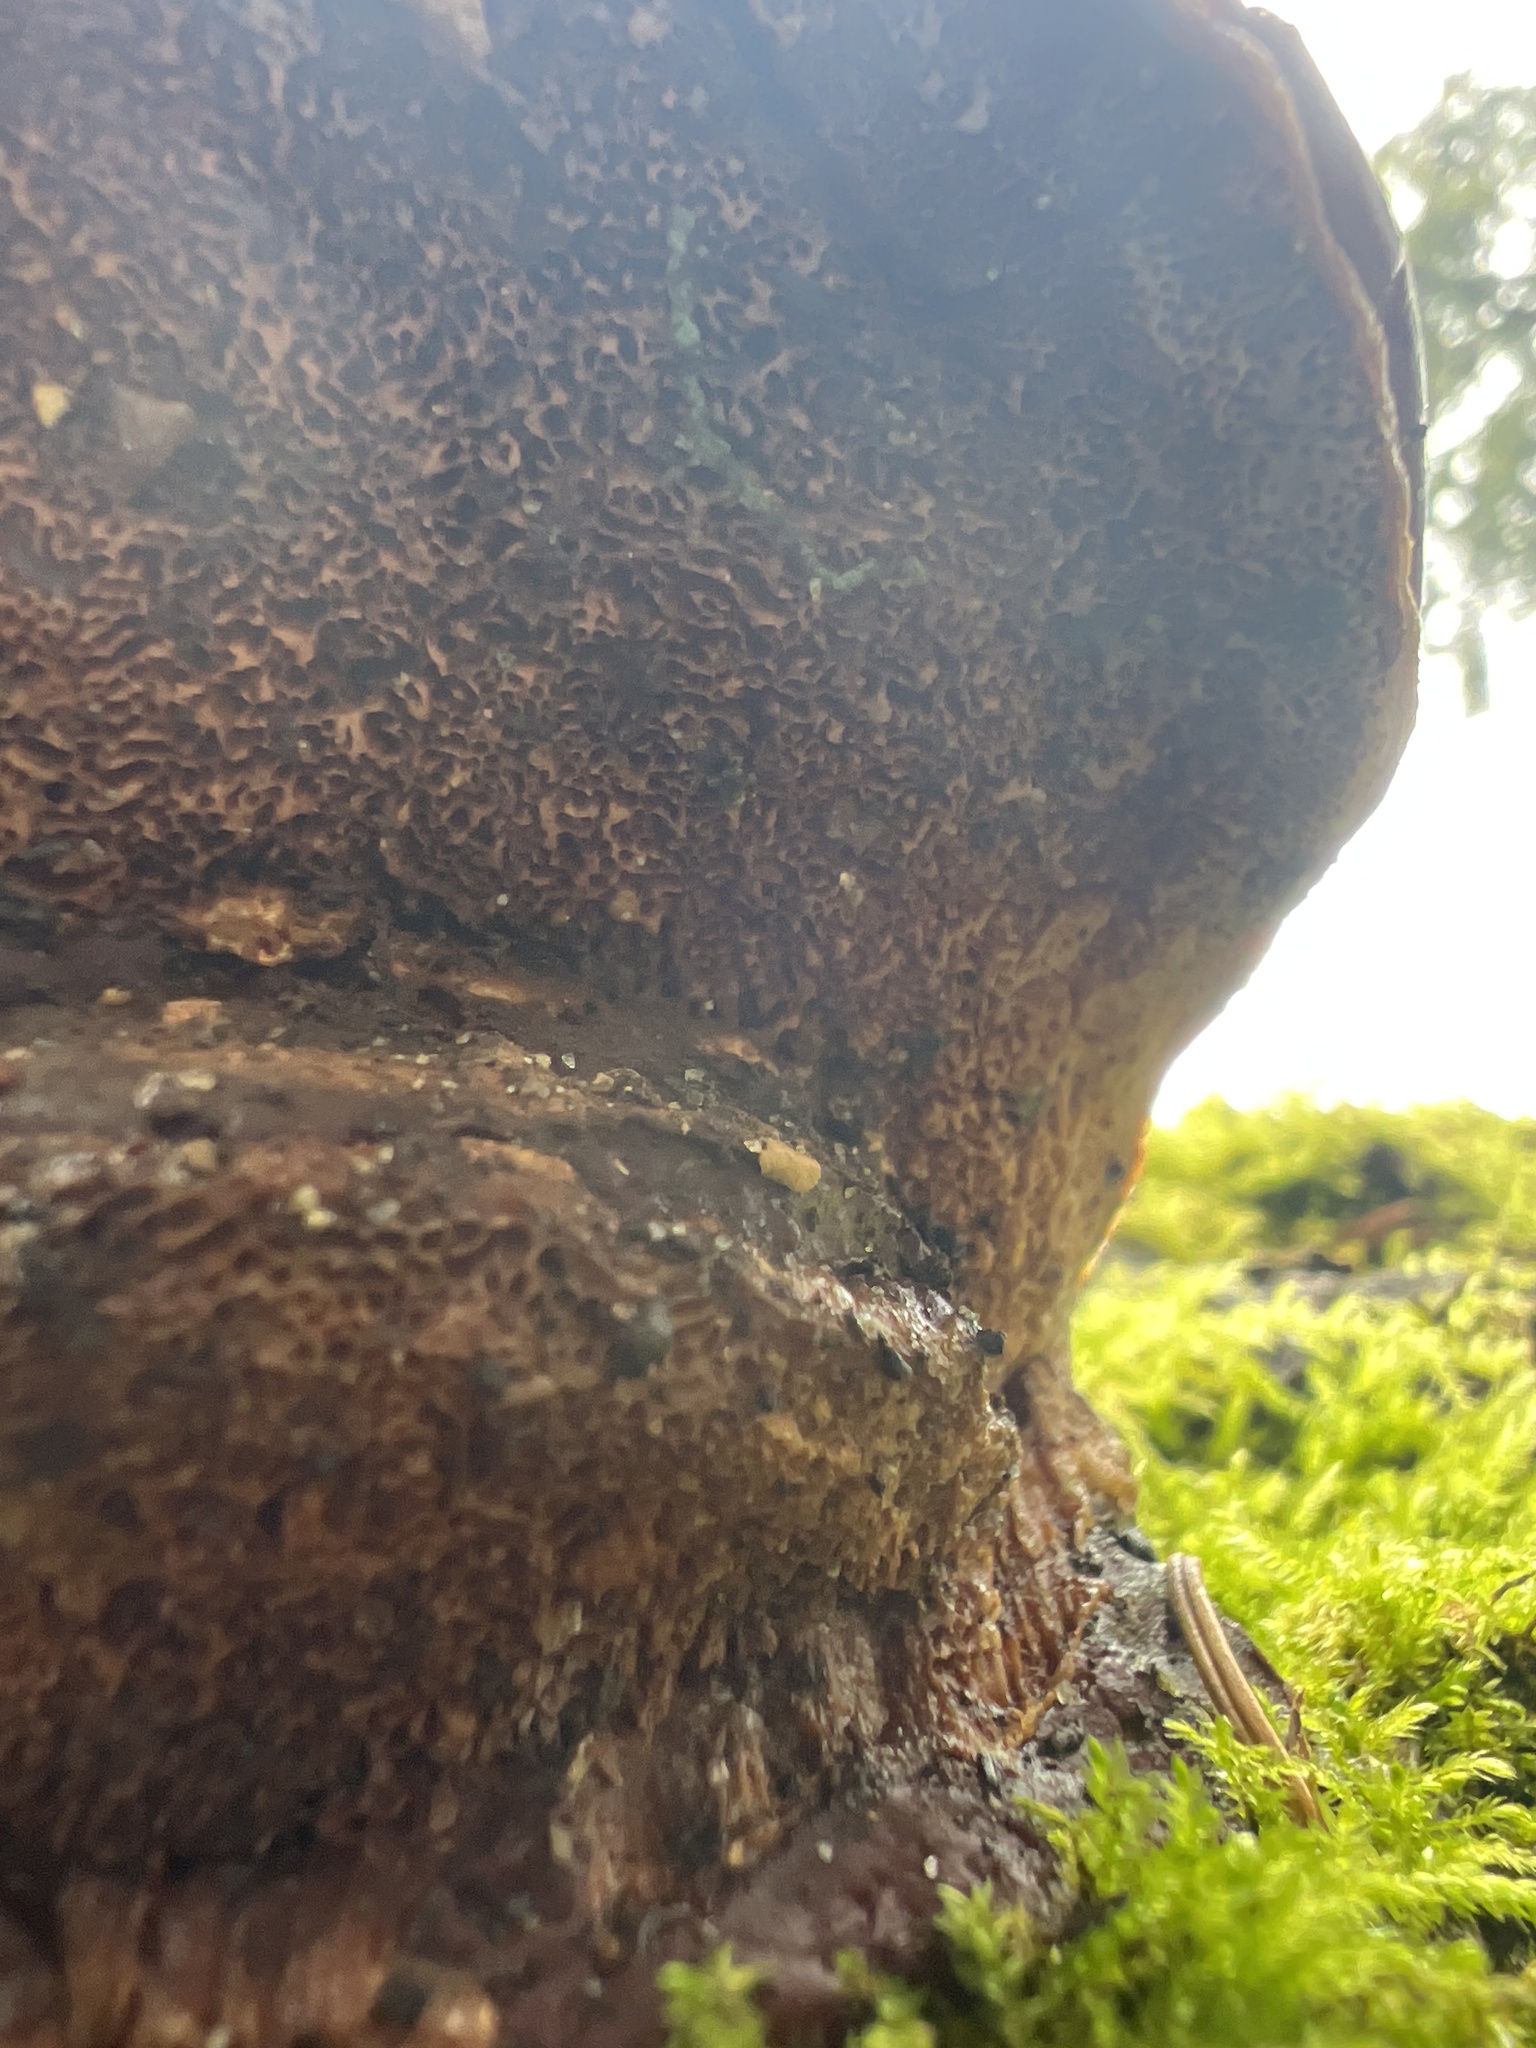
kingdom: Fungi
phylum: Basidiomycota
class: Agaricomycetes
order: Polyporales
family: Polyporaceae
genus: Ganoderma
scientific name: Ganoderma oregonense
